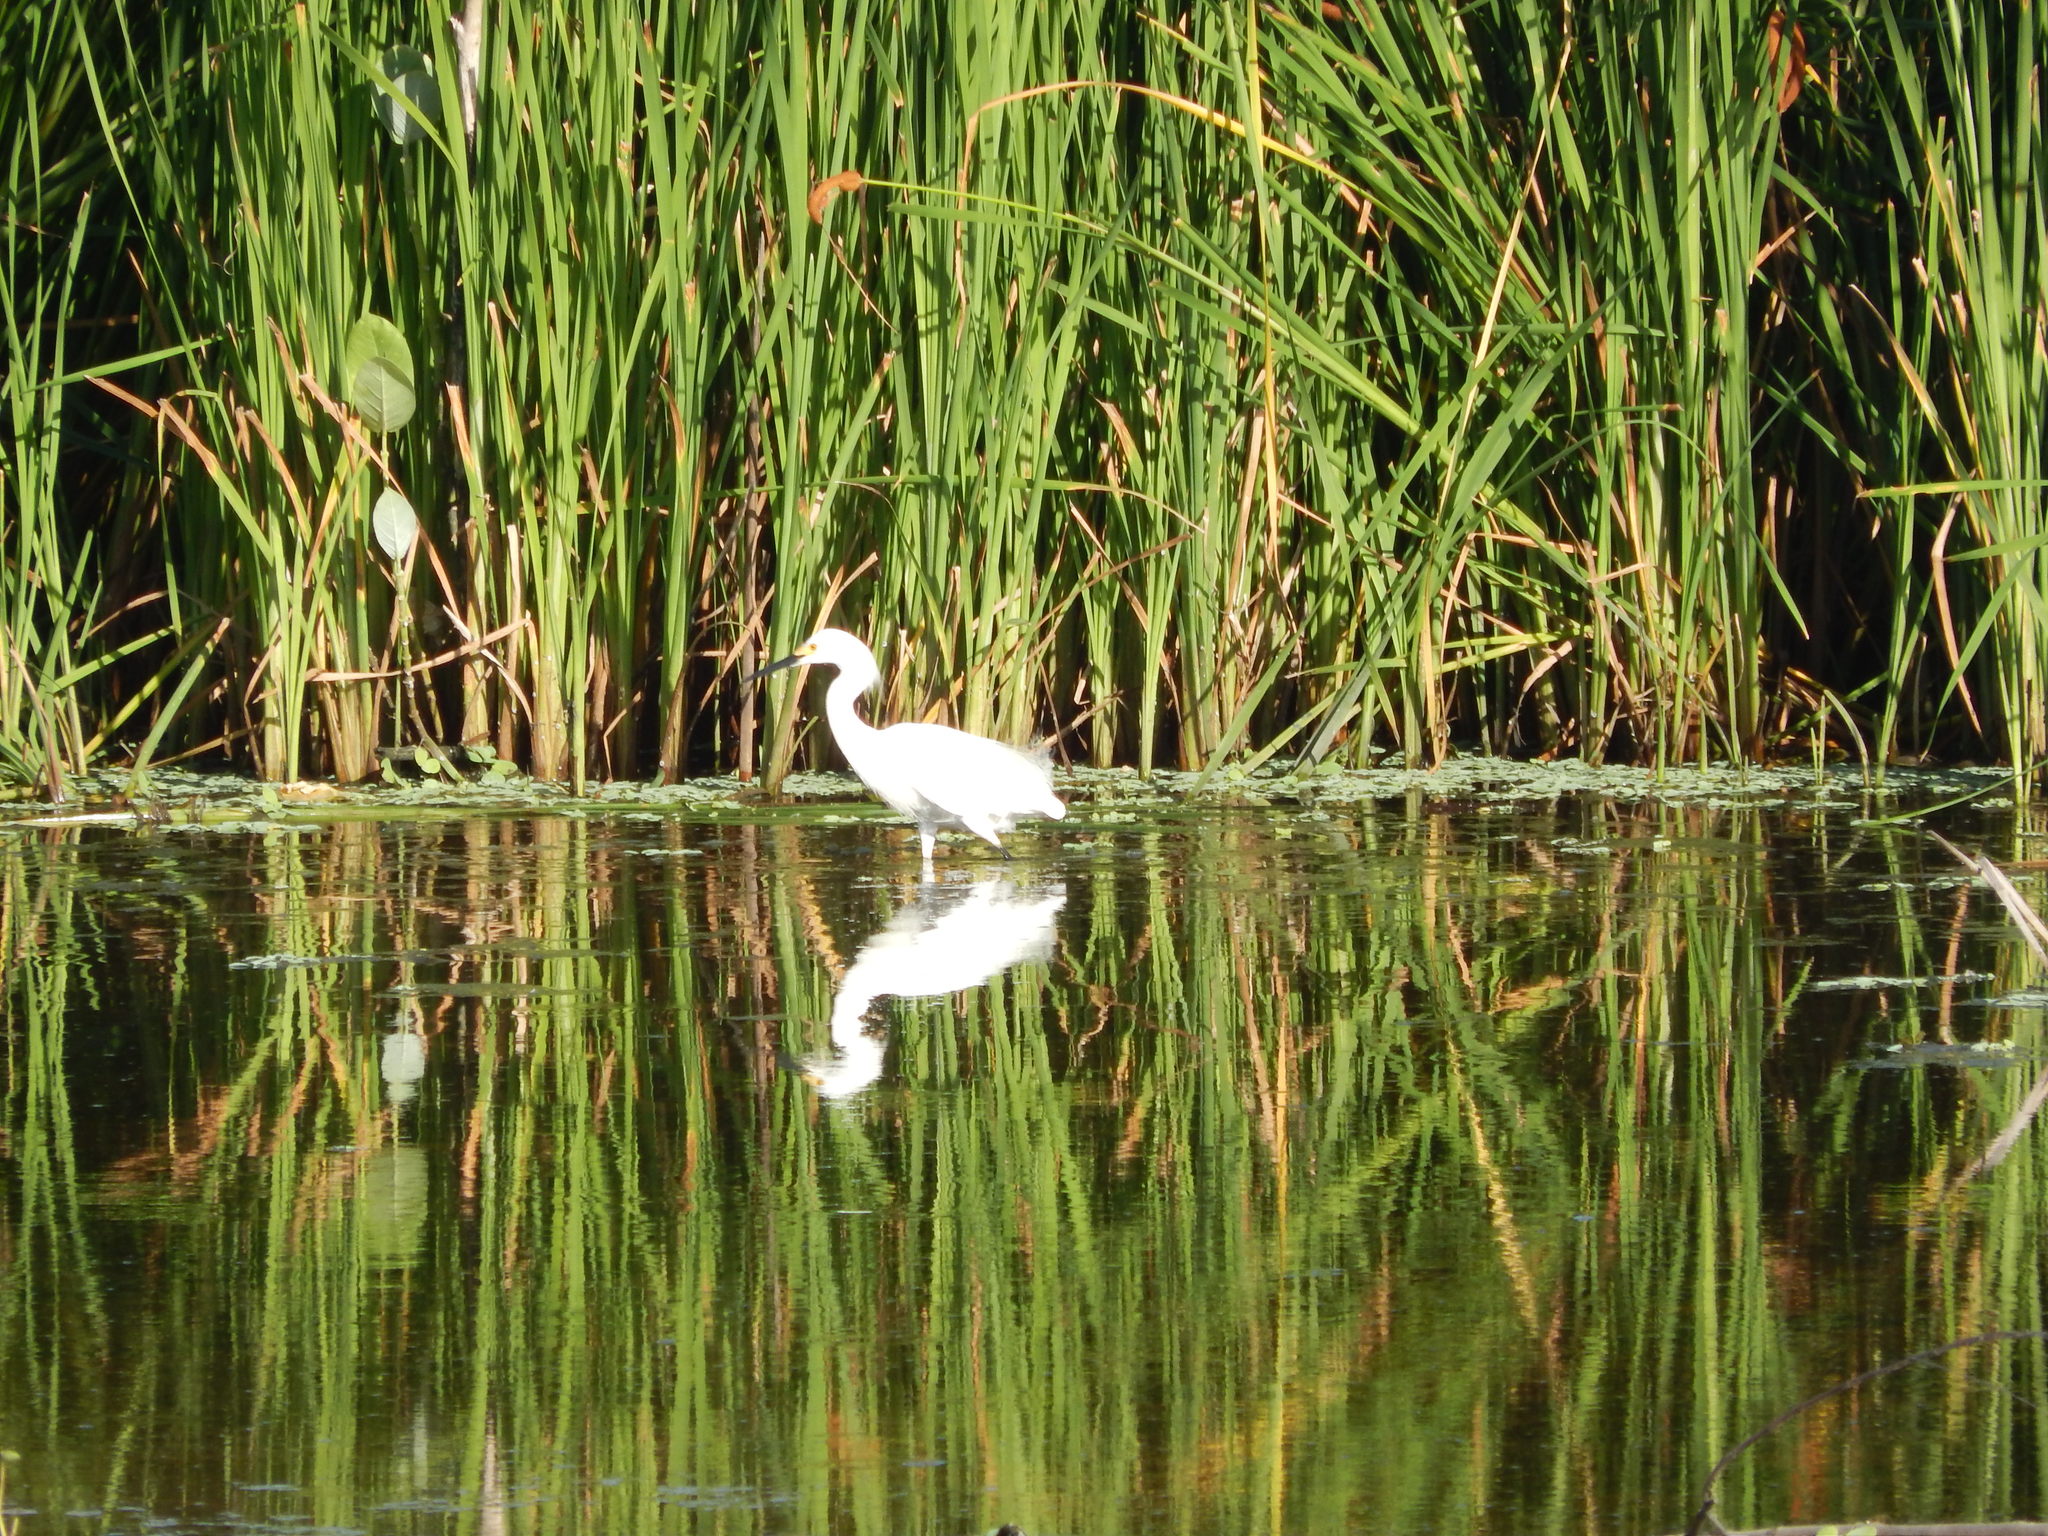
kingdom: Animalia
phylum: Chordata
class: Aves
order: Pelecaniformes
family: Ardeidae
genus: Egretta
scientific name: Egretta thula
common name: Snowy egret
